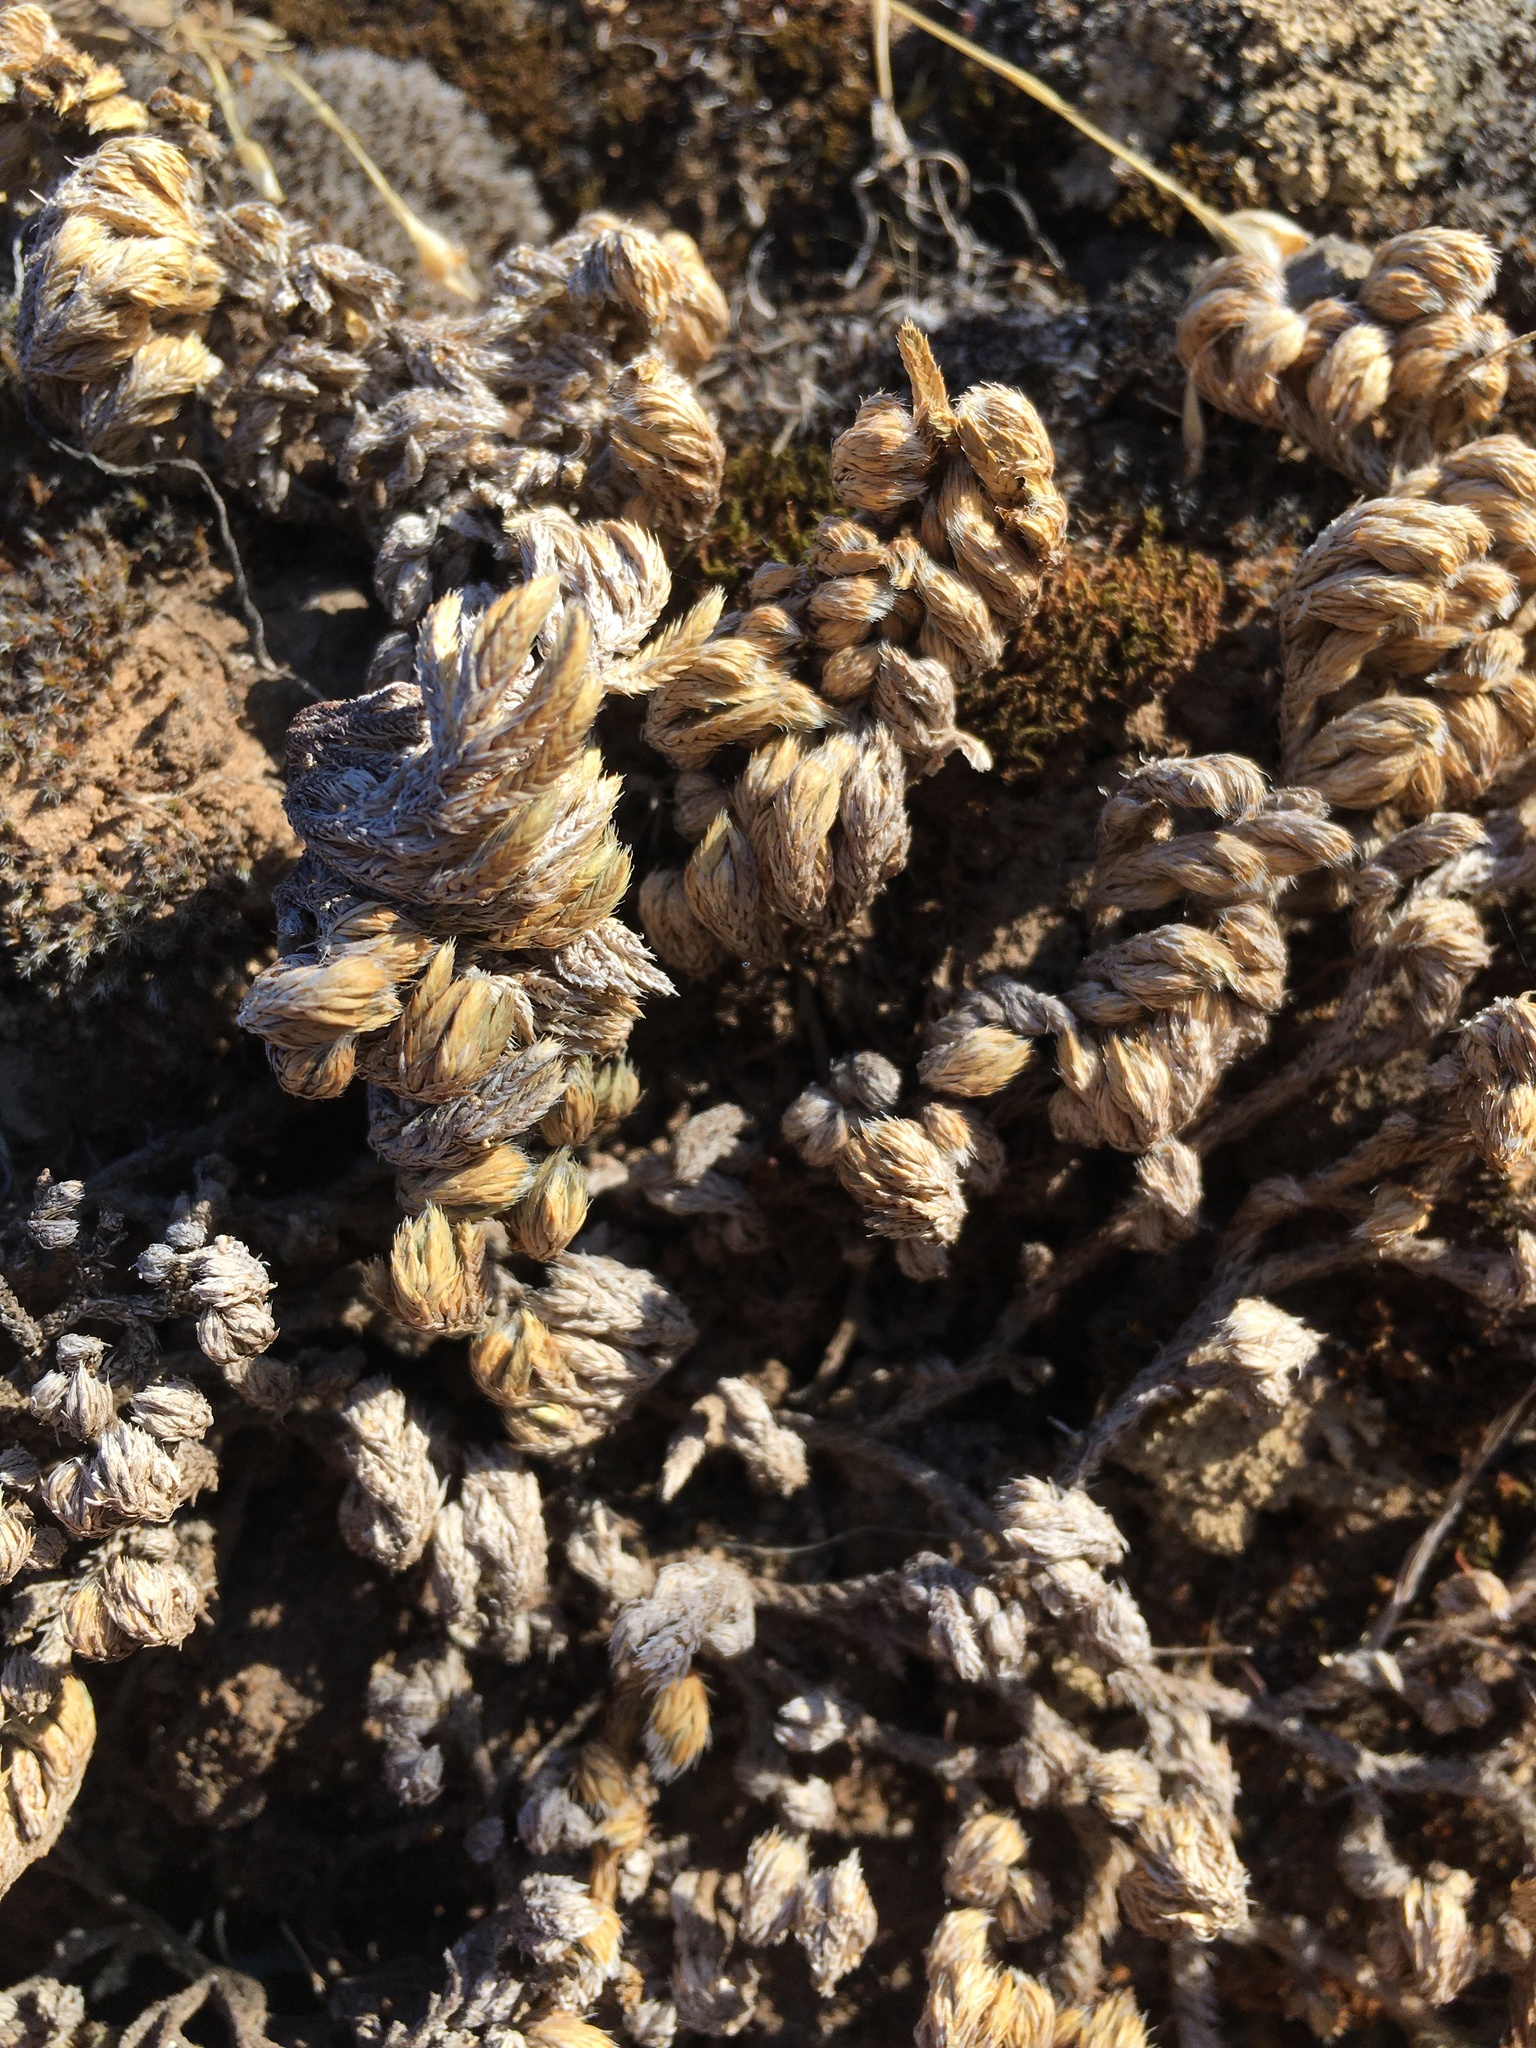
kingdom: Plantae
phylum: Tracheophyta
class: Lycopodiopsida
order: Selaginellales
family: Selaginellaceae
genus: Selaginella
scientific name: Selaginella hansenii
